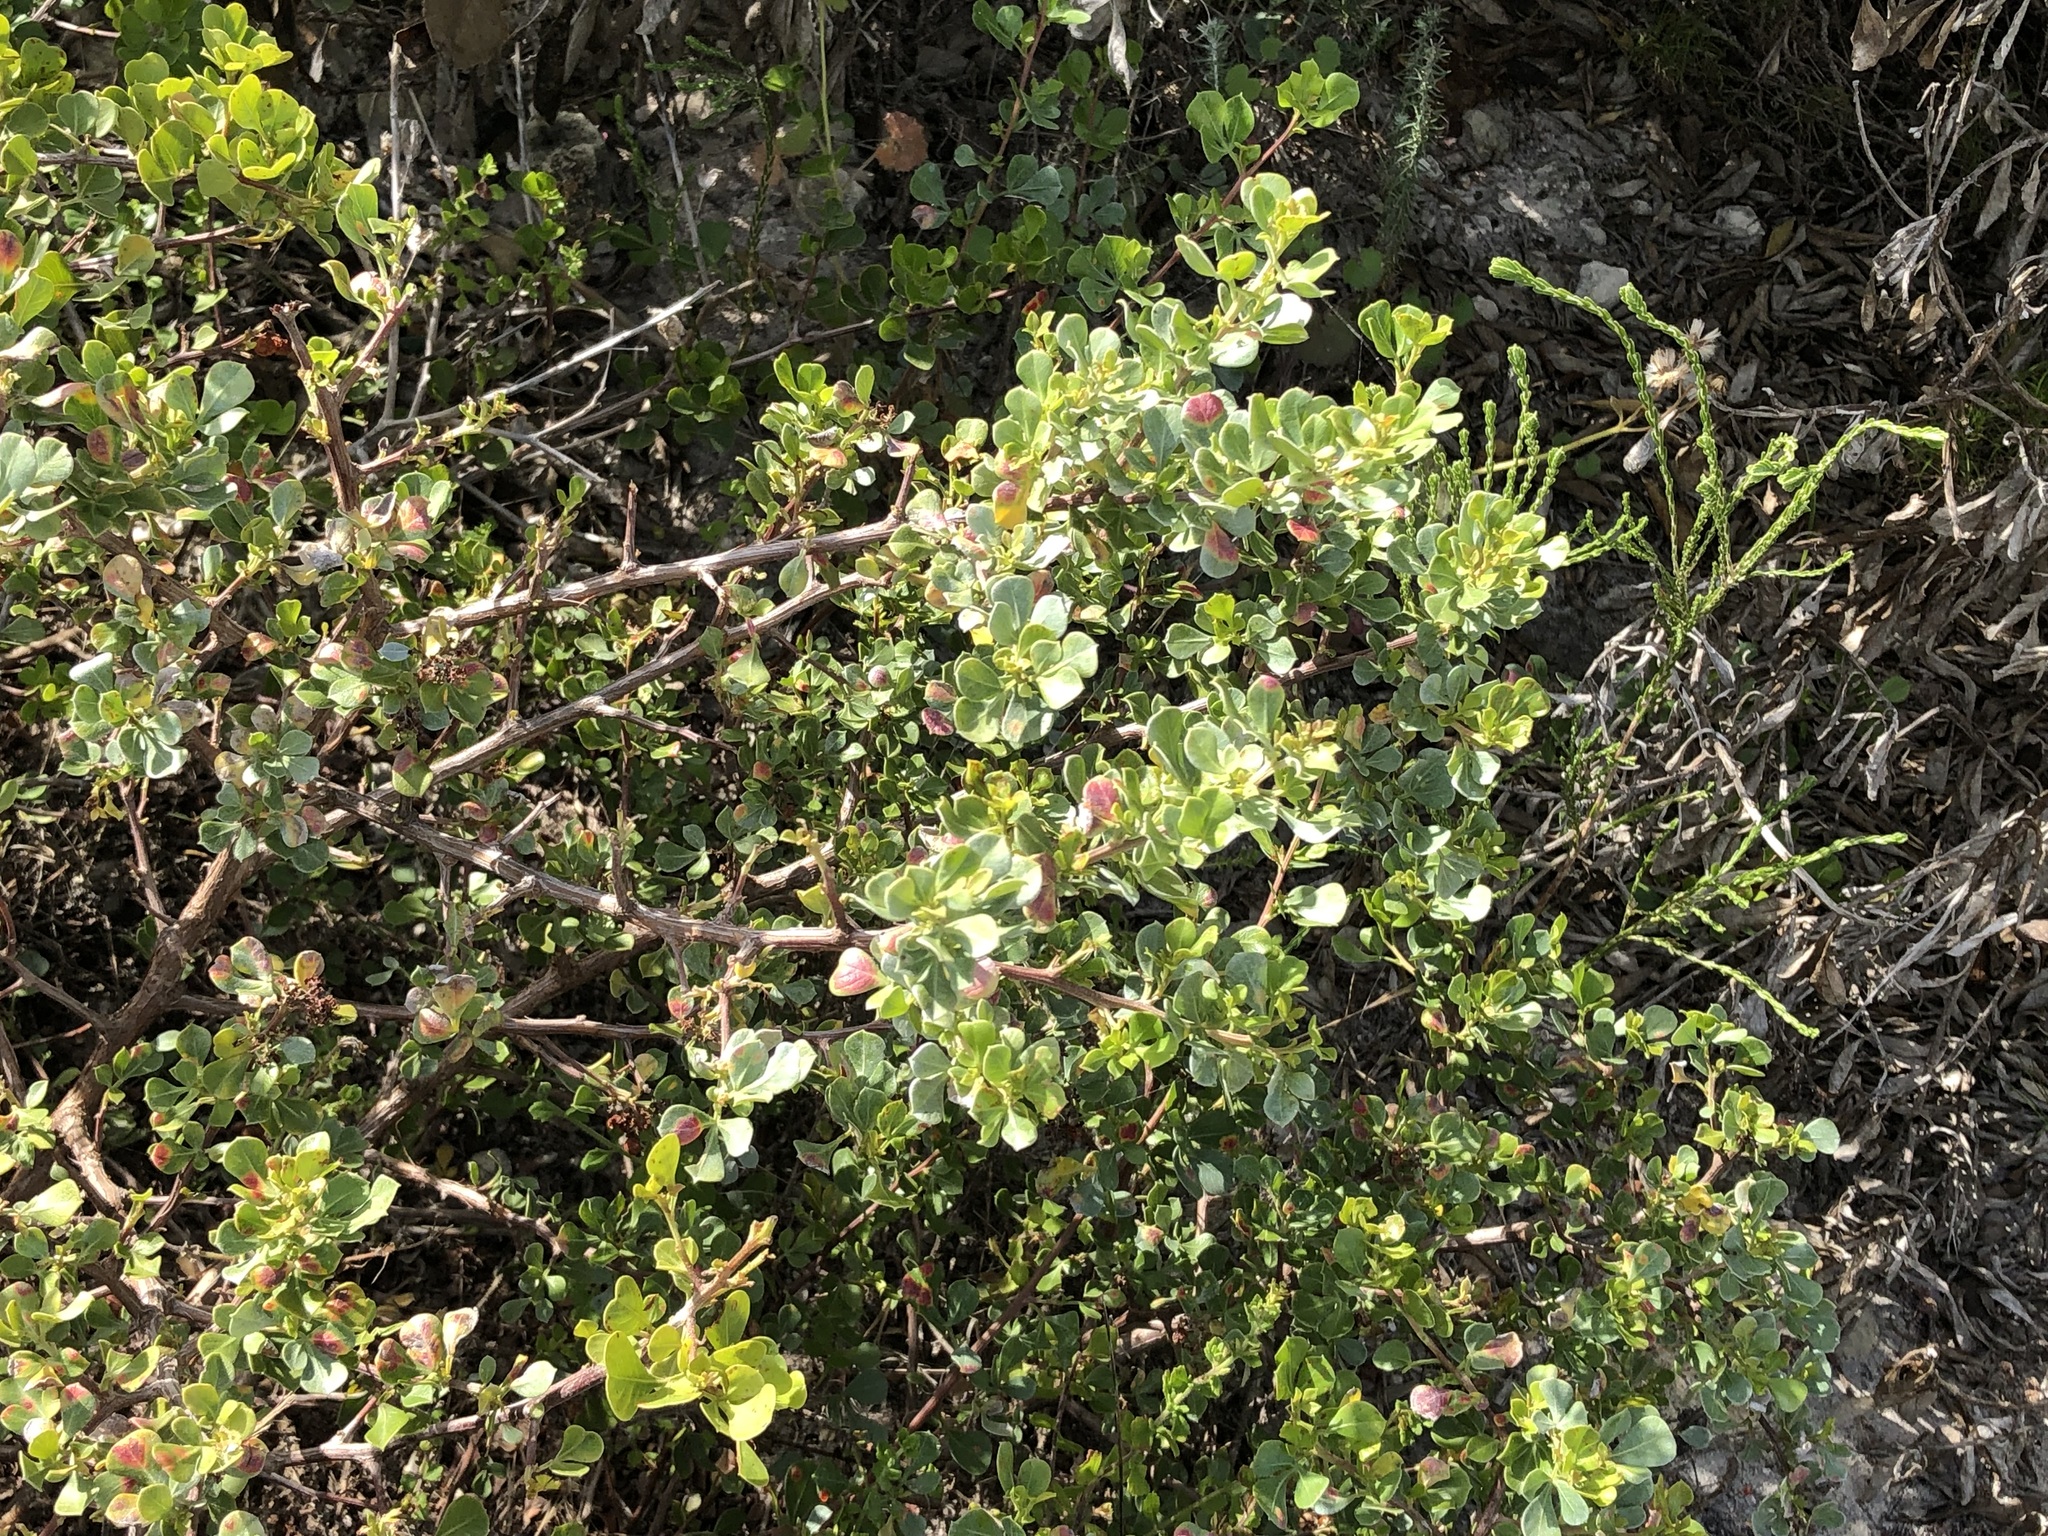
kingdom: Plantae
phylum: Tracheophyta
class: Magnoliopsida
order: Sapindales
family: Anacardiaceae
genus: Searsia
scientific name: Searsia glauca
